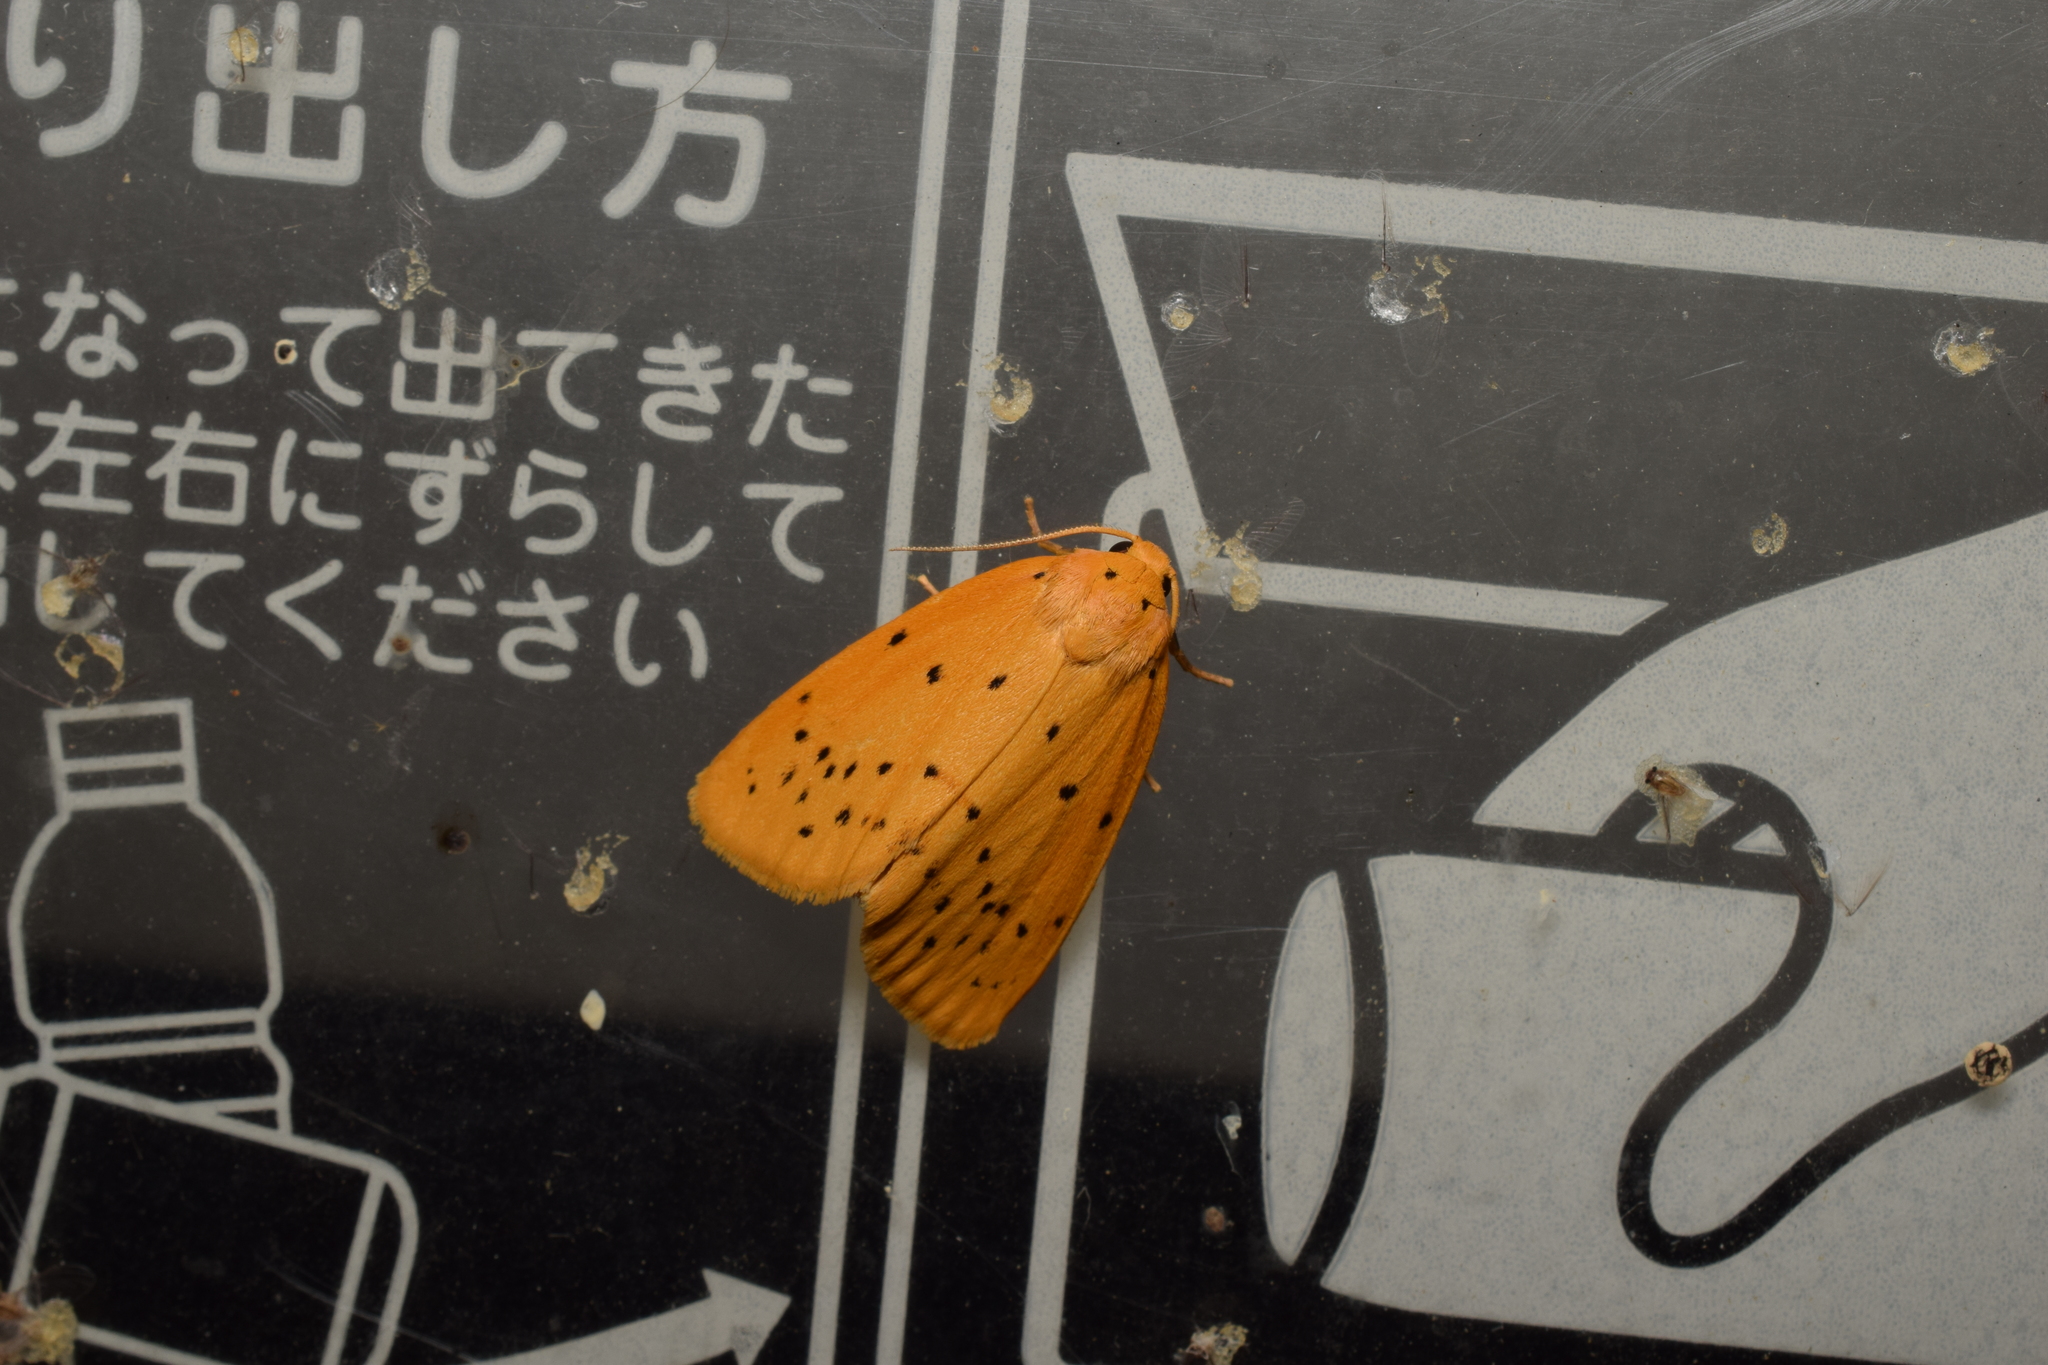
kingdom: Animalia
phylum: Arthropoda
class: Insecta
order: Lepidoptera
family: Erebidae
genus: Stigmatophora
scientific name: Stigmatophora flava
